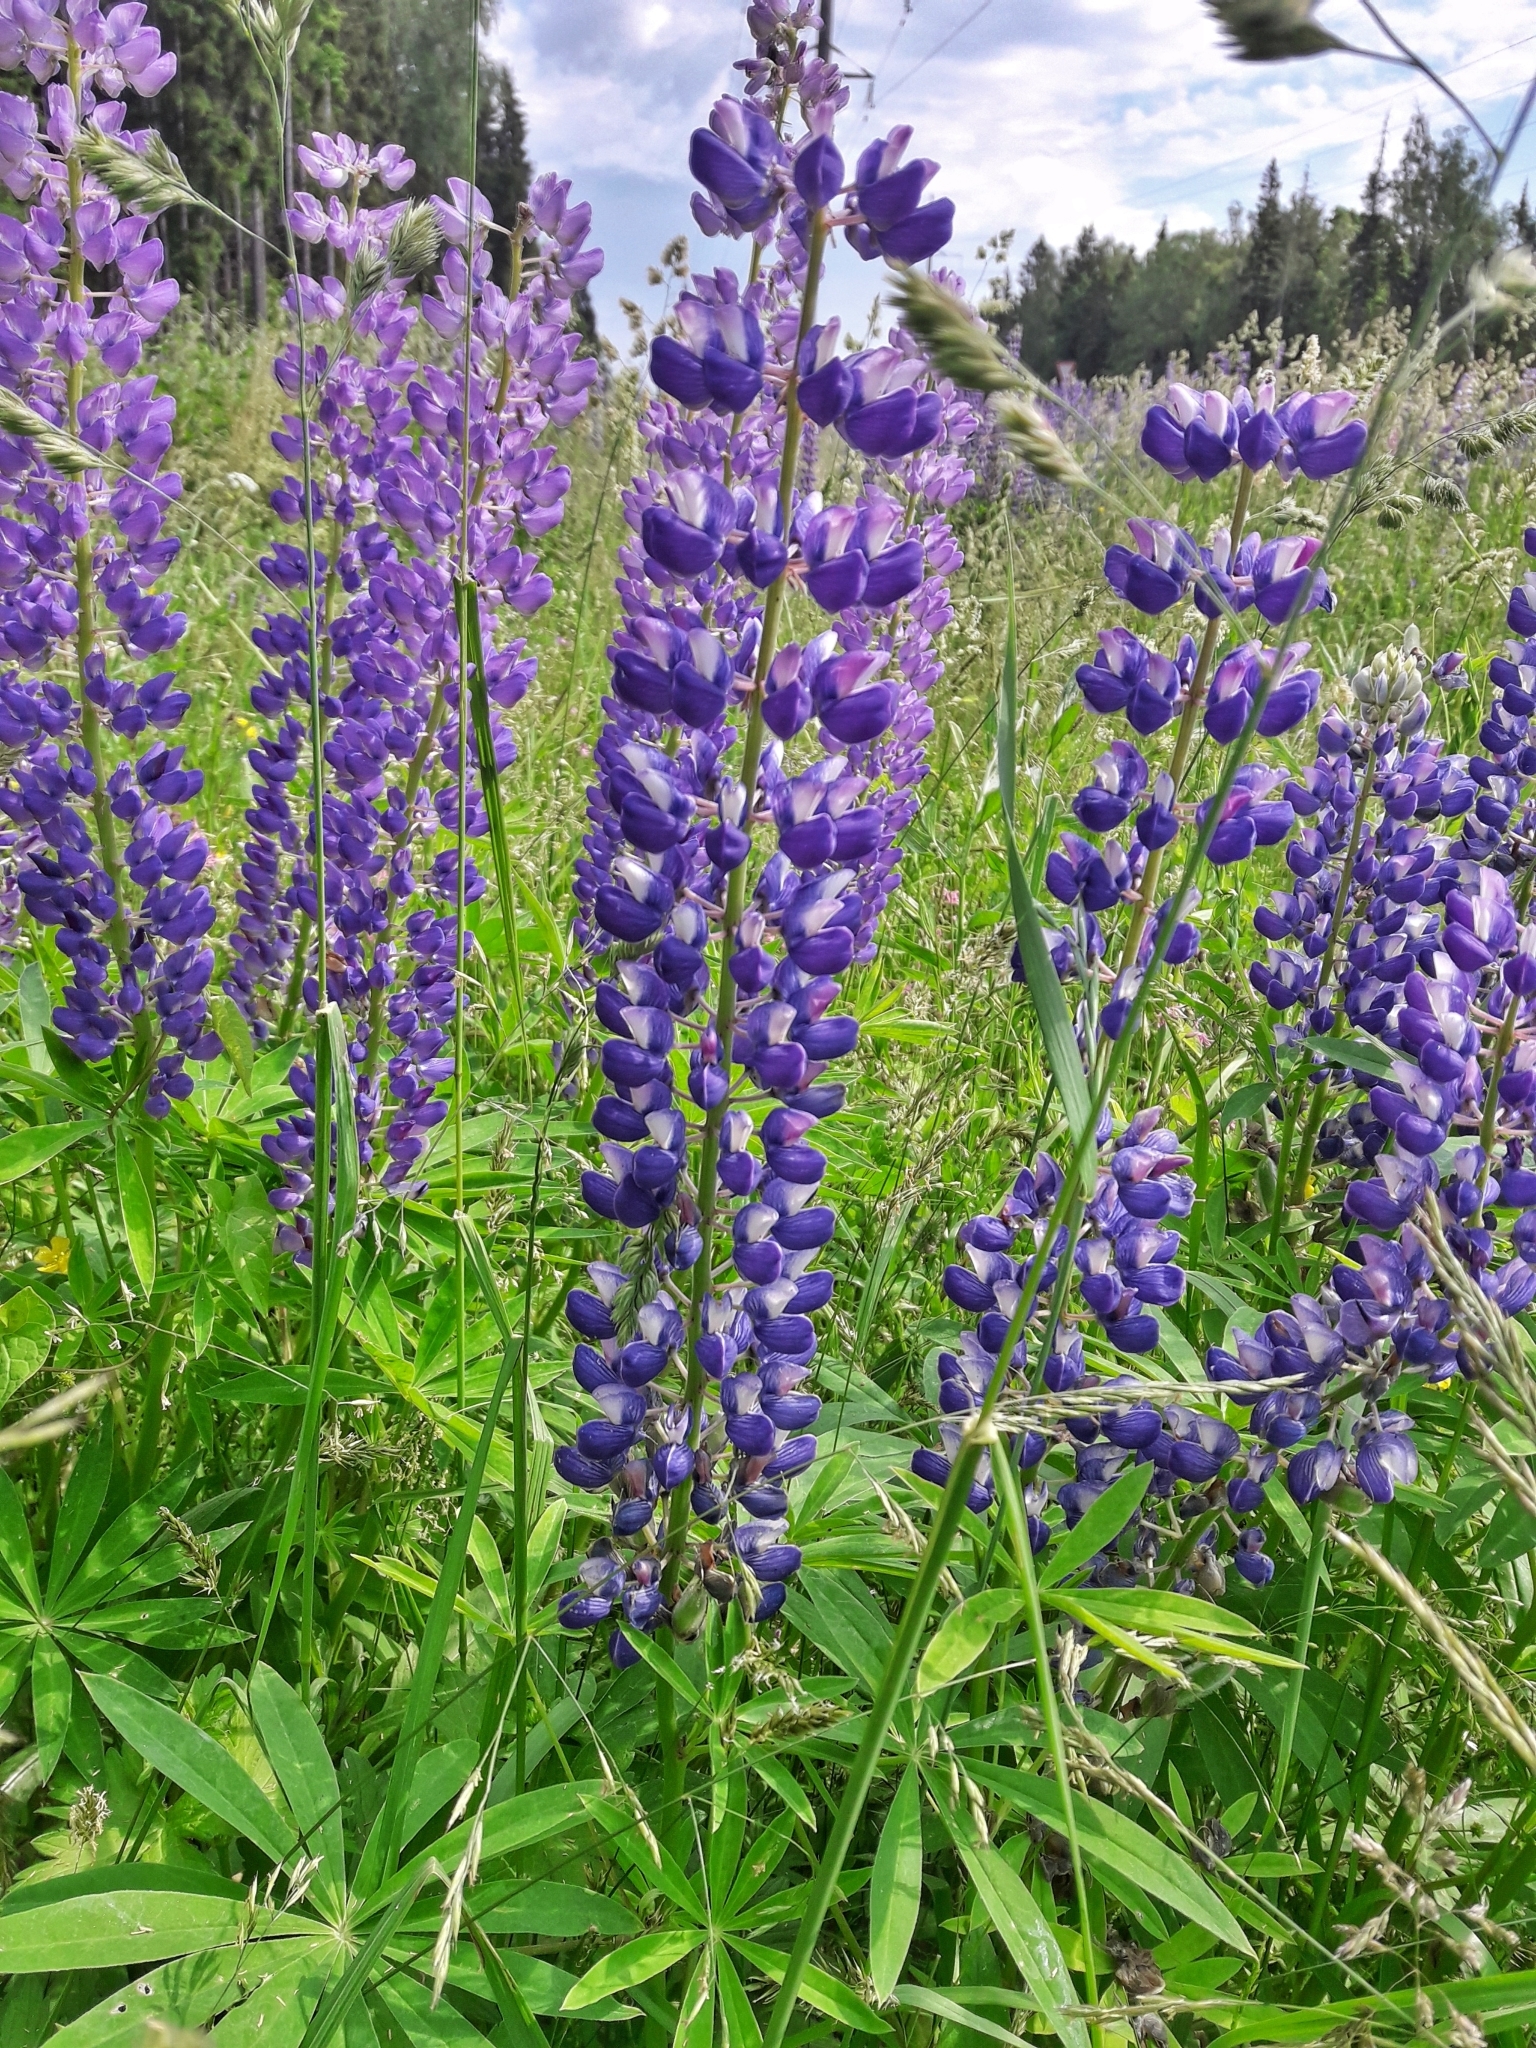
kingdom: Plantae
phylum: Tracheophyta
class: Magnoliopsida
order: Fabales
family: Fabaceae
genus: Lupinus
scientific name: Lupinus polyphyllus
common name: Garden lupin
